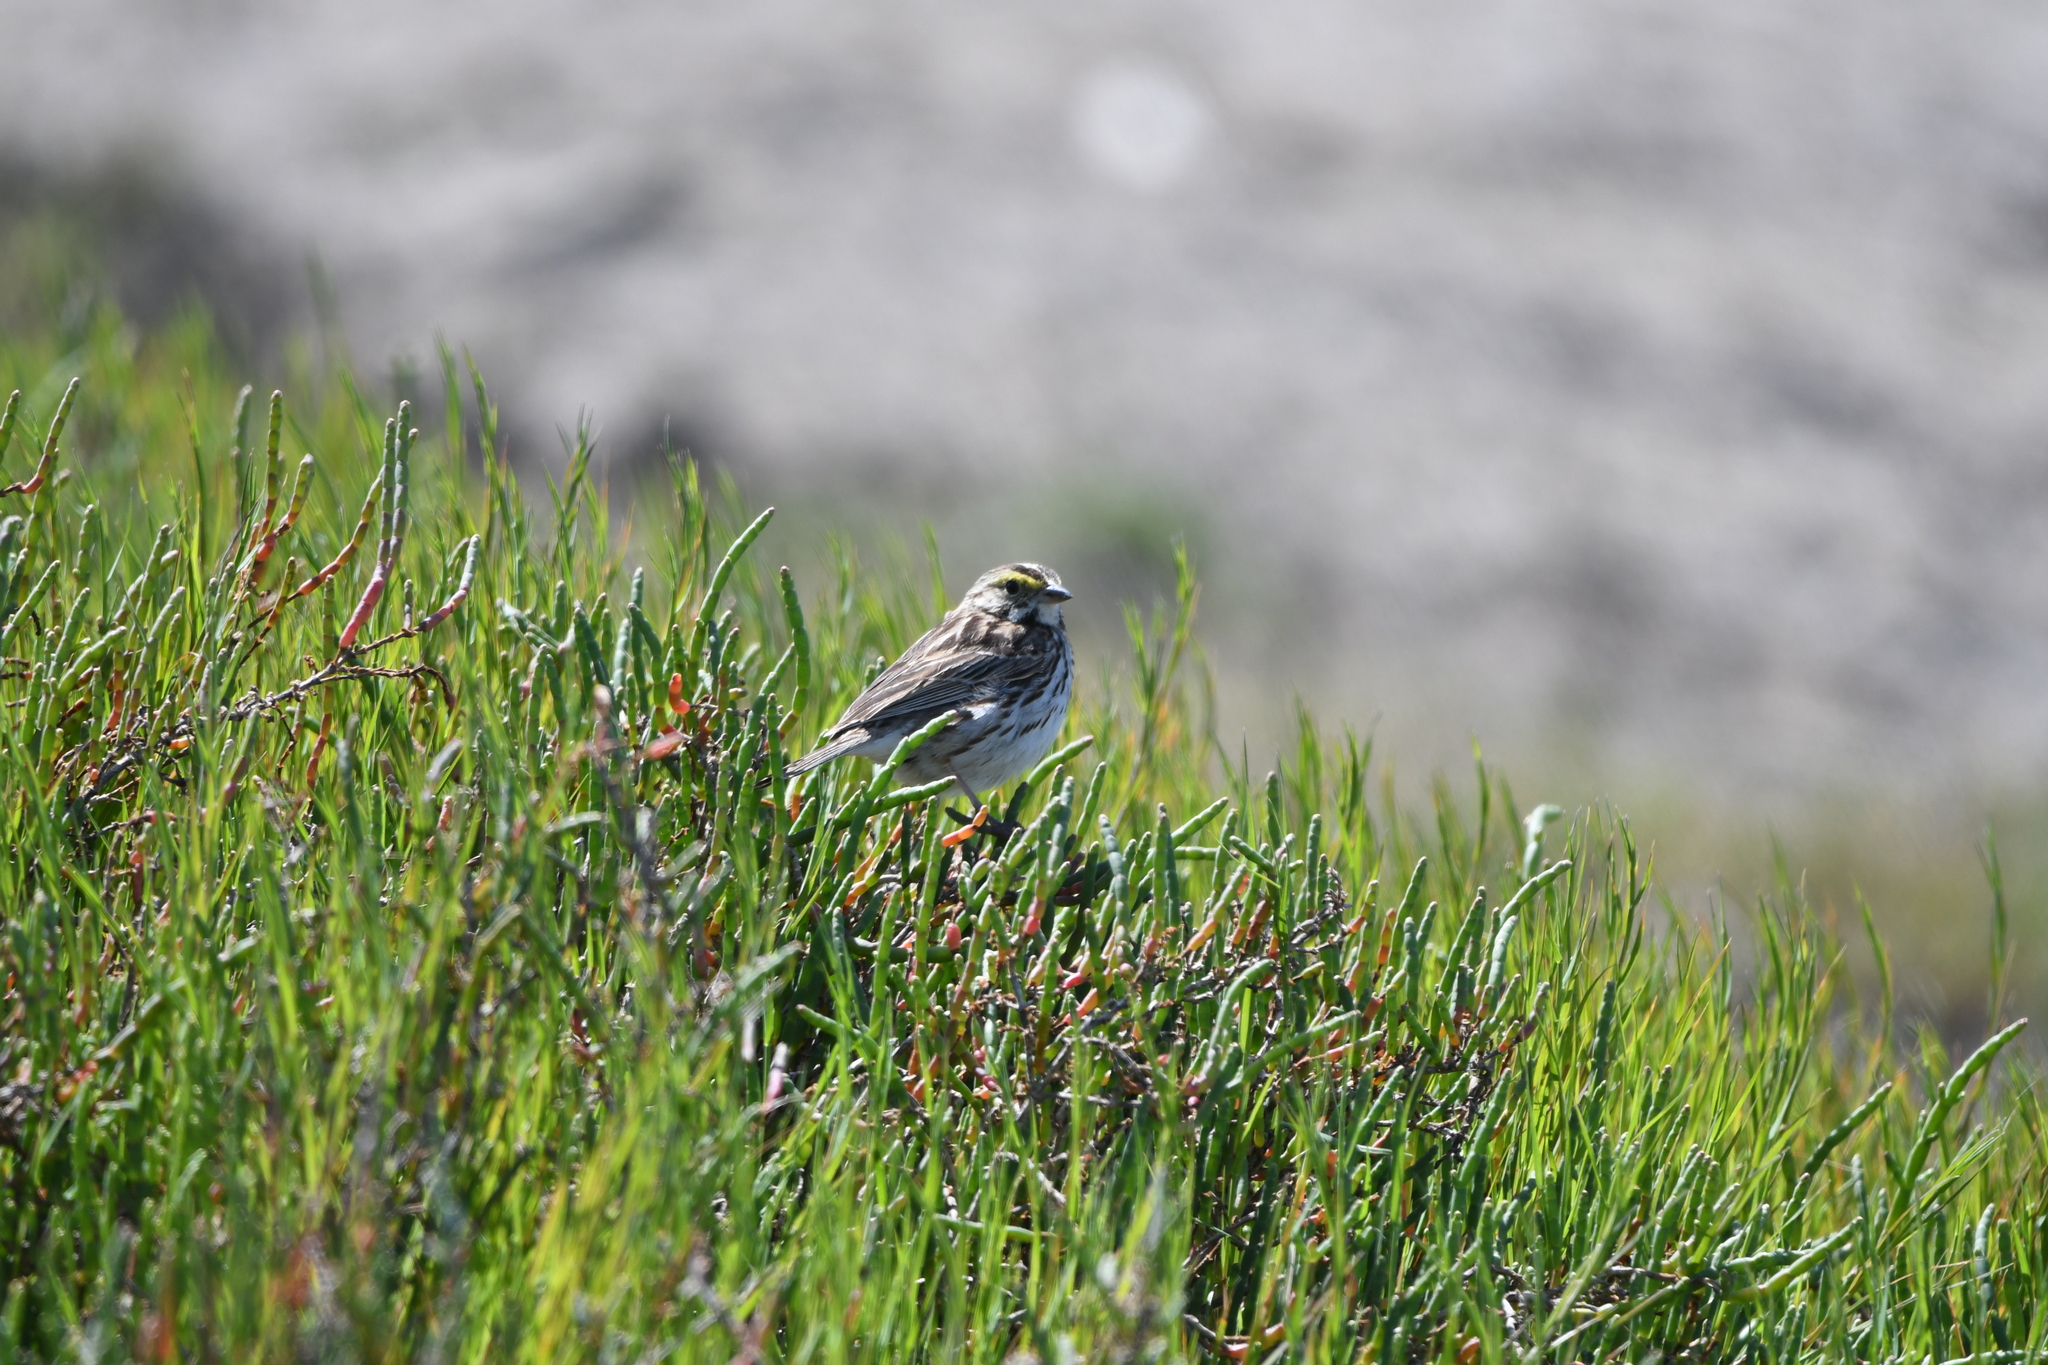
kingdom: Animalia
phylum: Chordata
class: Aves
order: Passeriformes
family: Passerellidae
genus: Passerculus
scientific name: Passerculus sandwichensis
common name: Savannah sparrow
